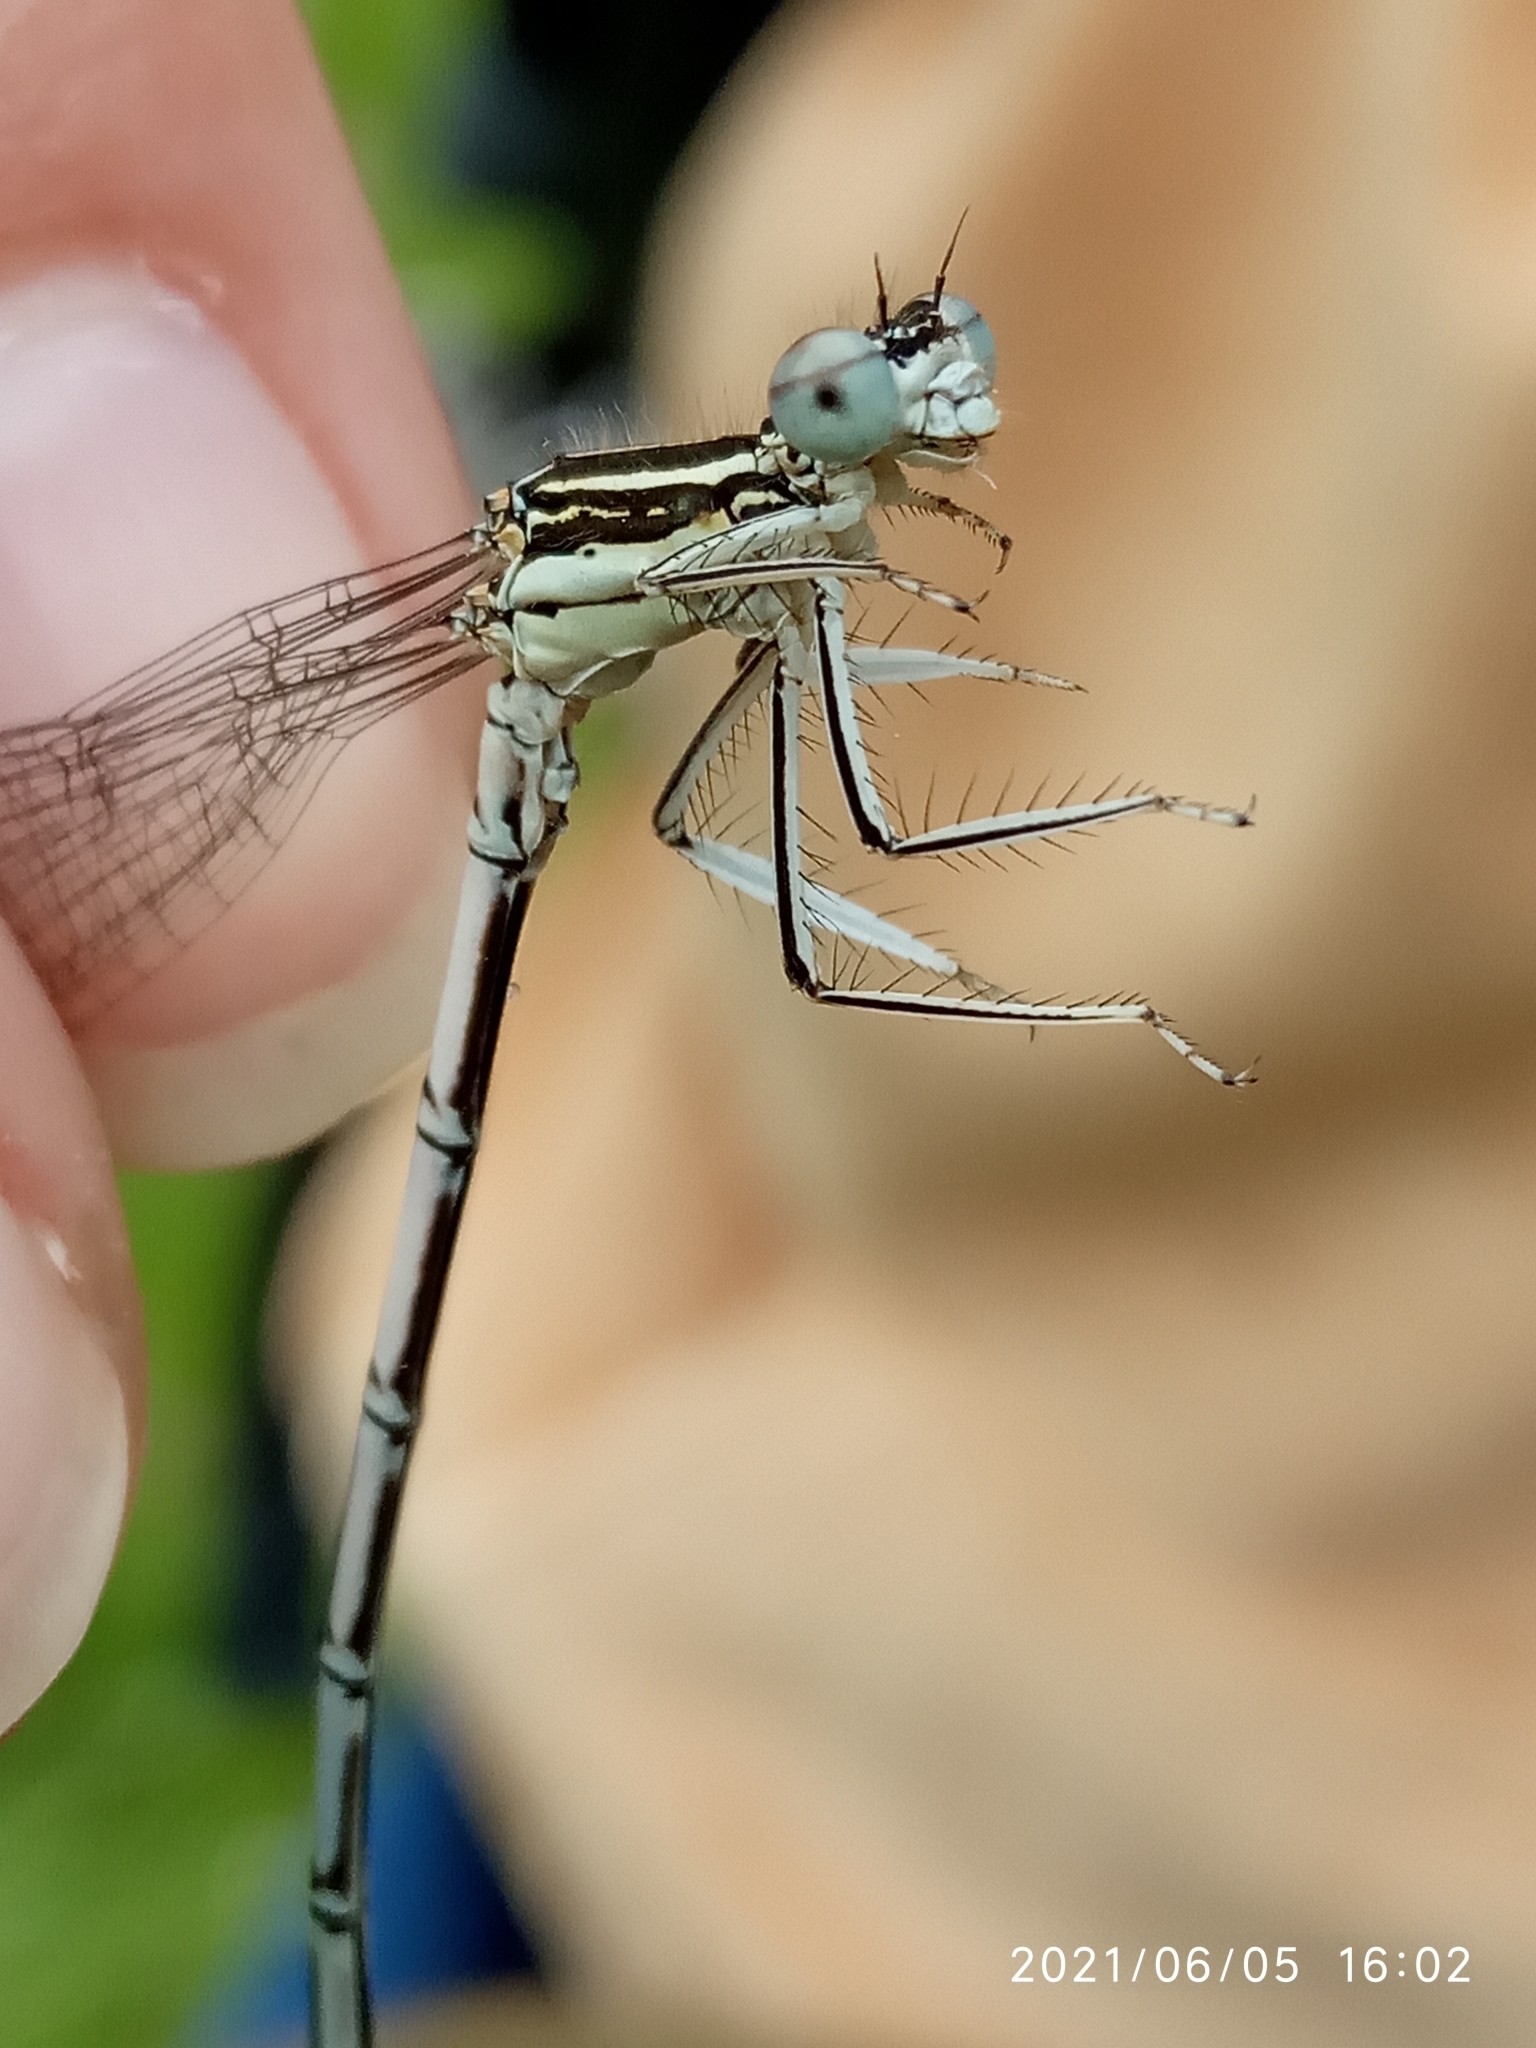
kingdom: Animalia
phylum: Arthropoda
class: Insecta
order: Odonata
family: Platycnemididae
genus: Platycnemis
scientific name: Platycnemis pennipes
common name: White-legged damselfly
